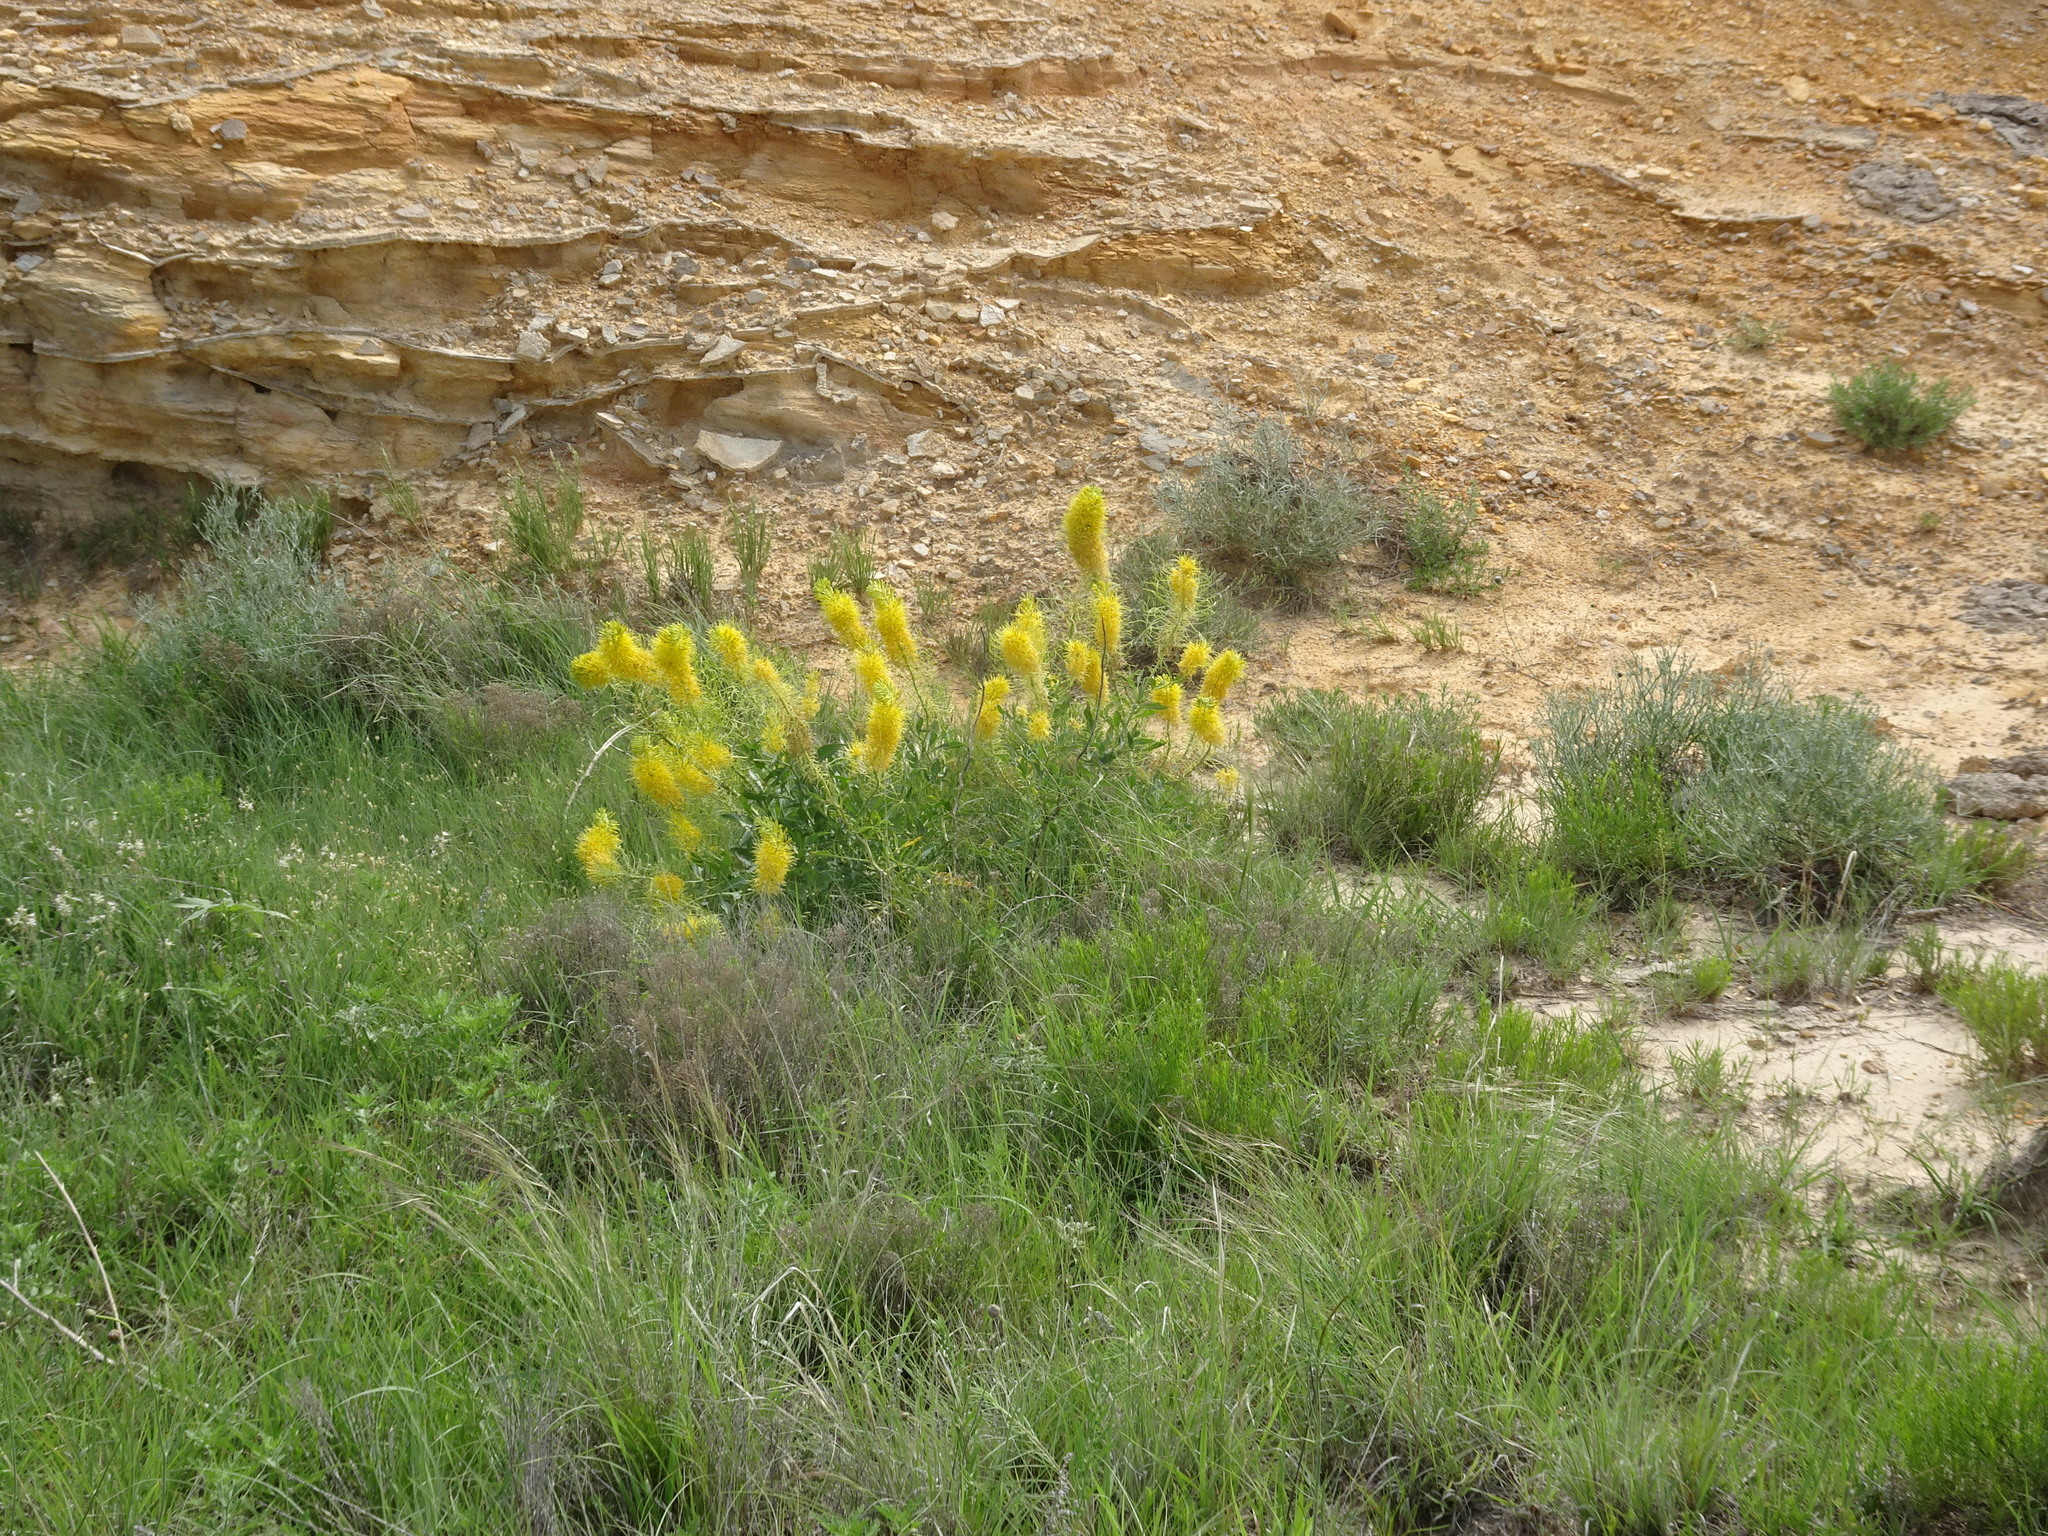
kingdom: Plantae
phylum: Tracheophyta
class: Magnoliopsida
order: Brassicales
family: Brassicaceae
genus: Stanleya
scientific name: Stanleya pinnata
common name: Prince's-plume
